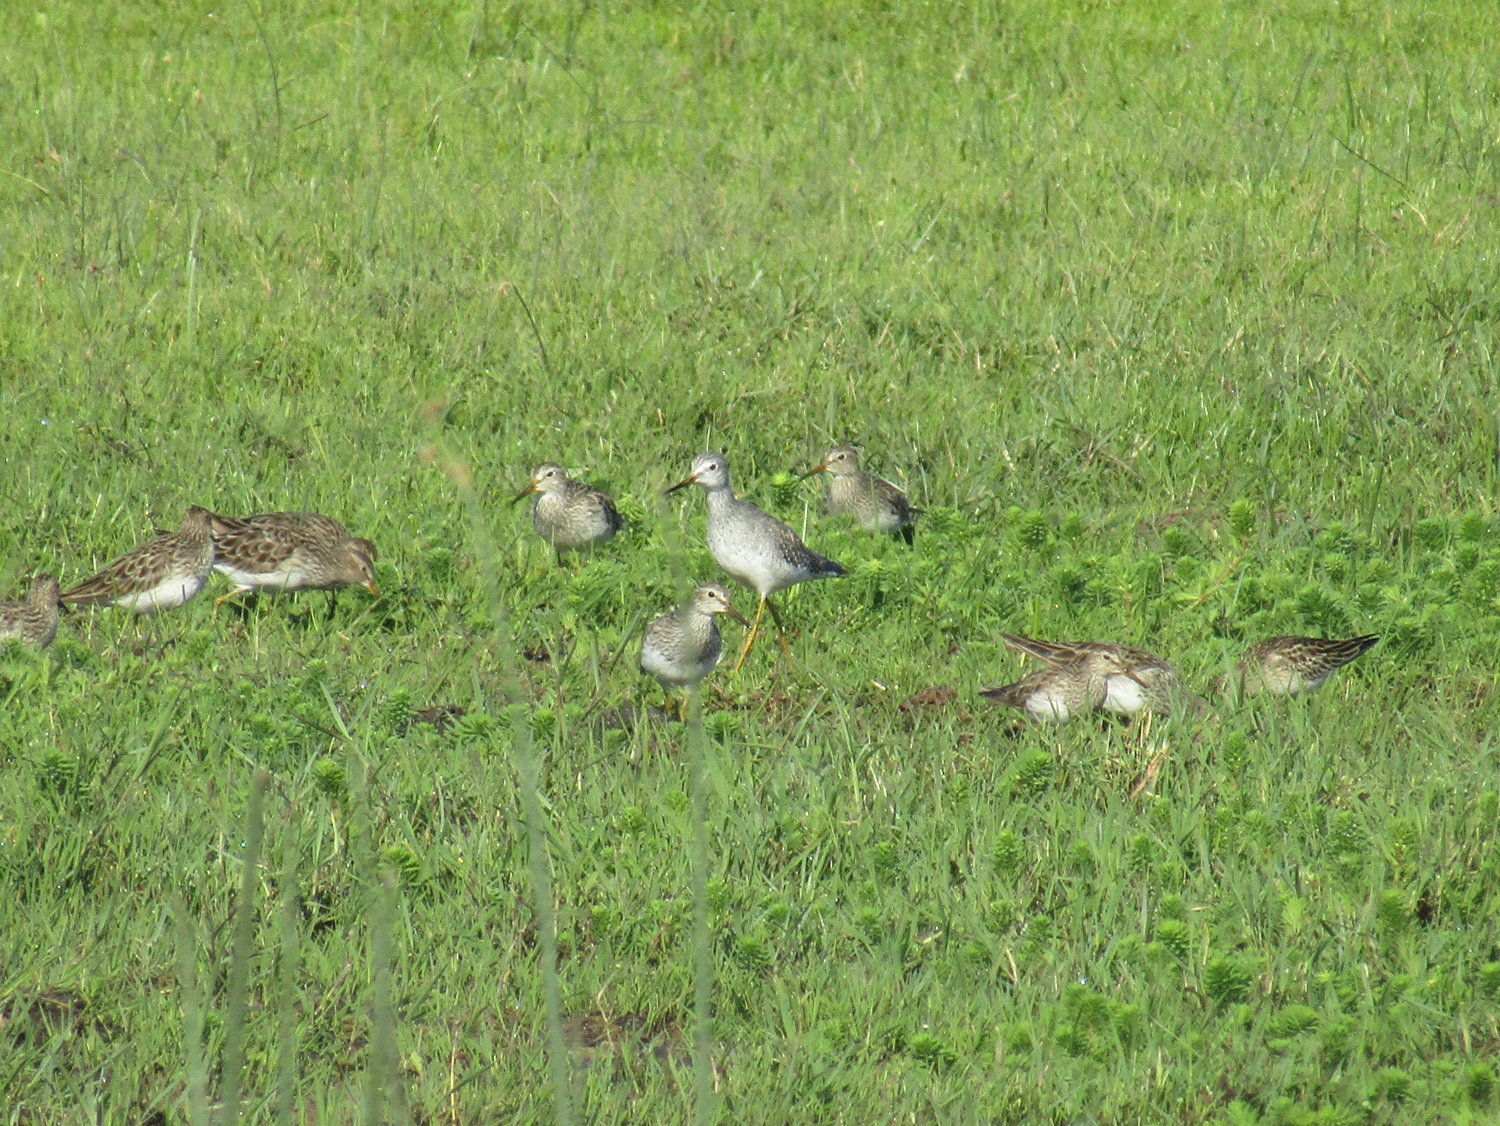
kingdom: Animalia
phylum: Chordata
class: Aves
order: Charadriiformes
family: Scolopacidae
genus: Tringa
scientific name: Tringa melanoleuca
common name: Greater yellowlegs
